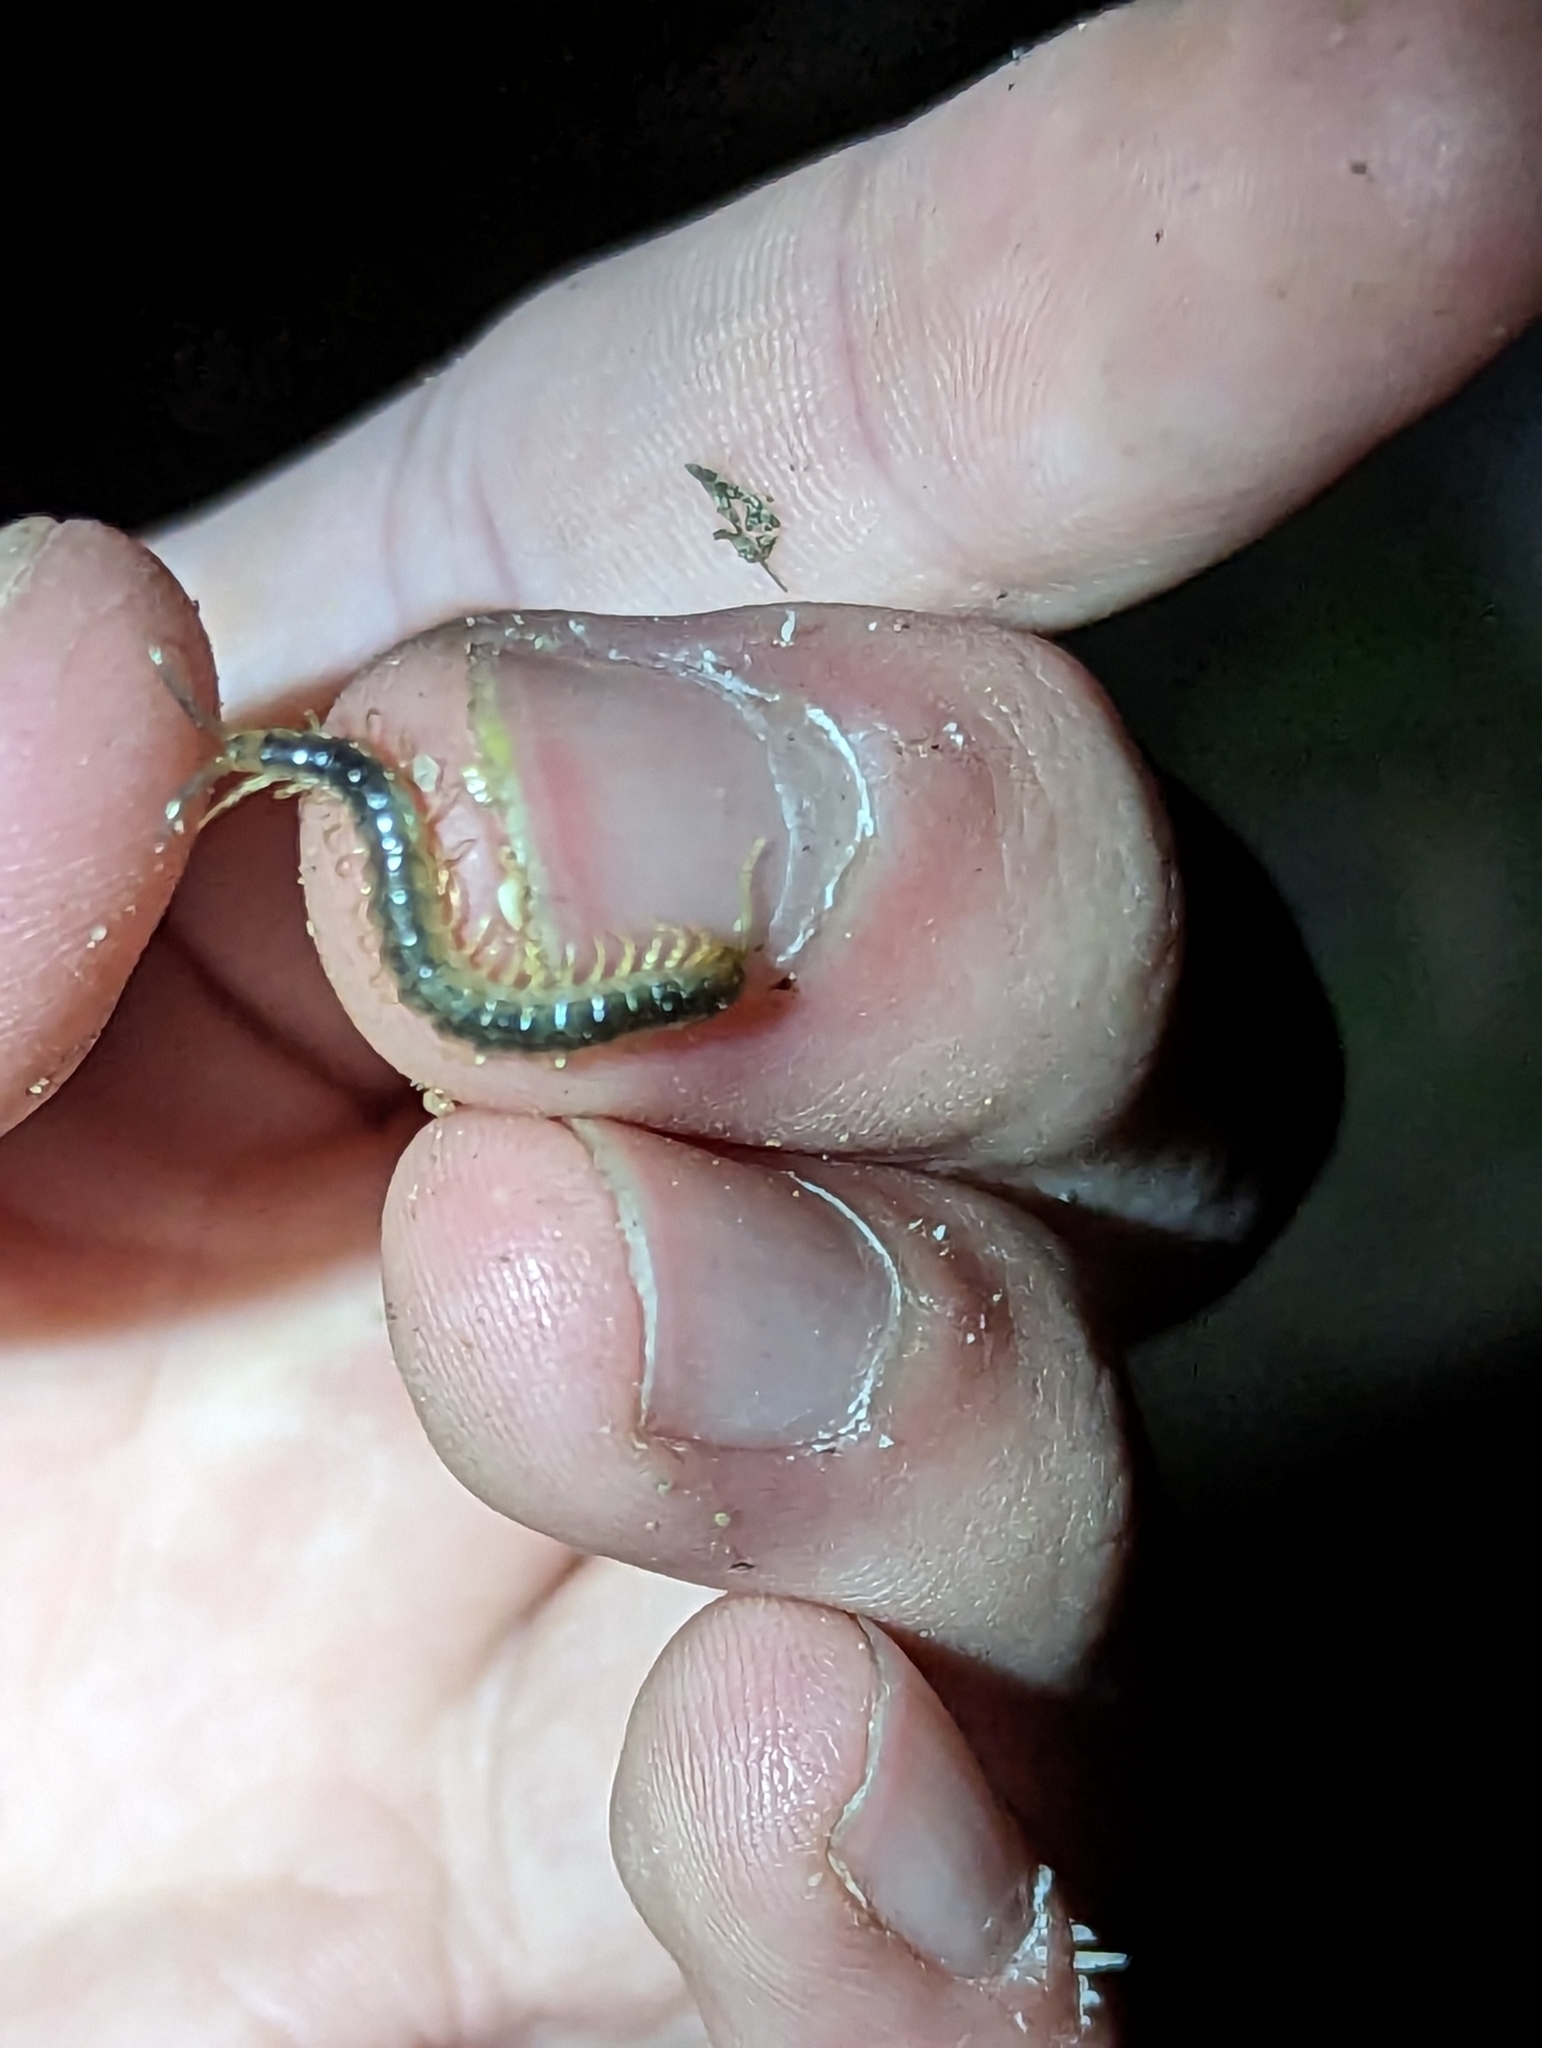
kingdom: Animalia
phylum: Arthropoda
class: Chilopoda
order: Scolopendromorpha
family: Scolopendridae
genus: Cormocephalus
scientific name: Cormocephalus aurantiipes
